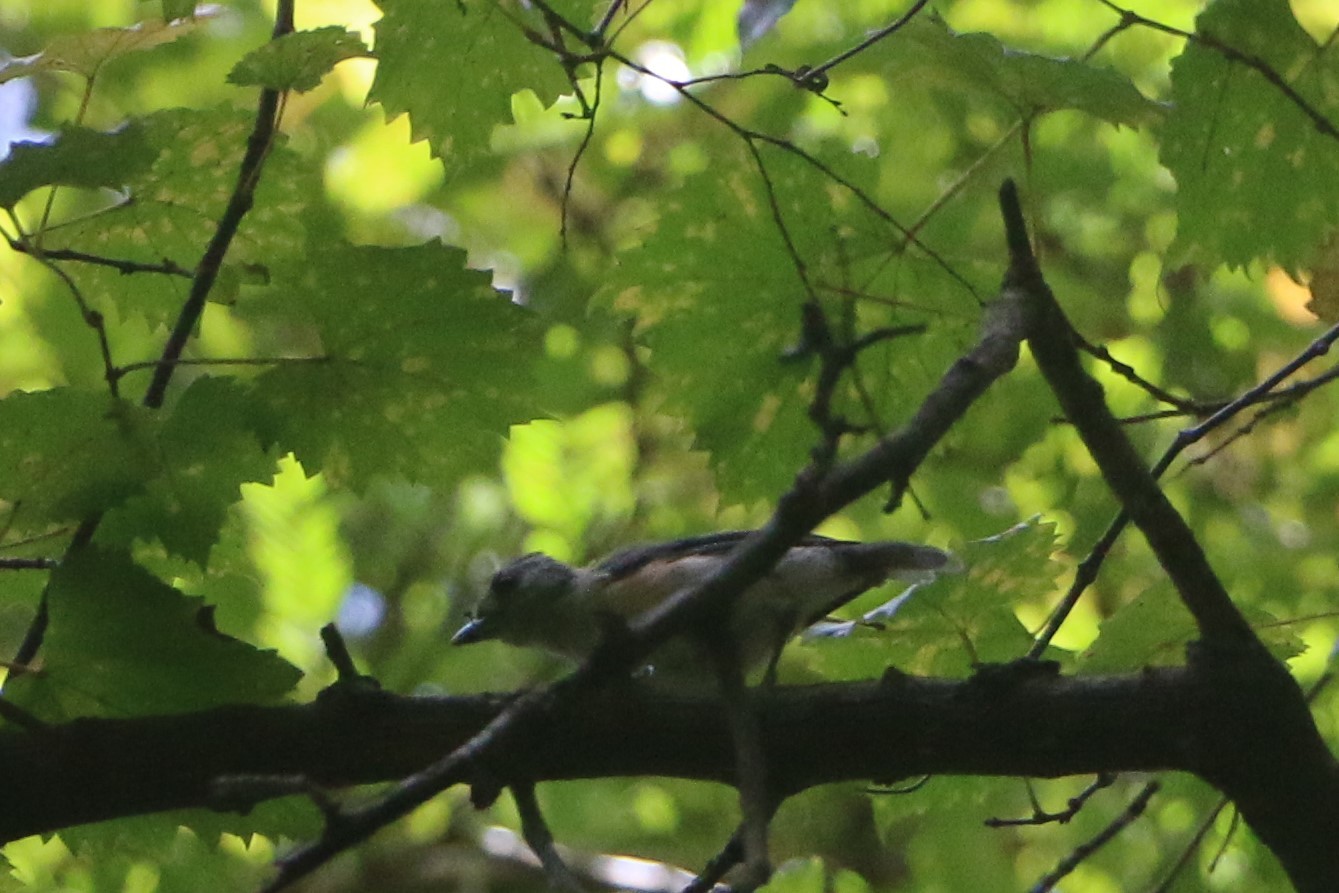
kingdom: Animalia
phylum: Chordata
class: Aves
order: Passeriformes
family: Paridae
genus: Baeolophus
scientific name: Baeolophus bicolor
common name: Tufted titmouse
